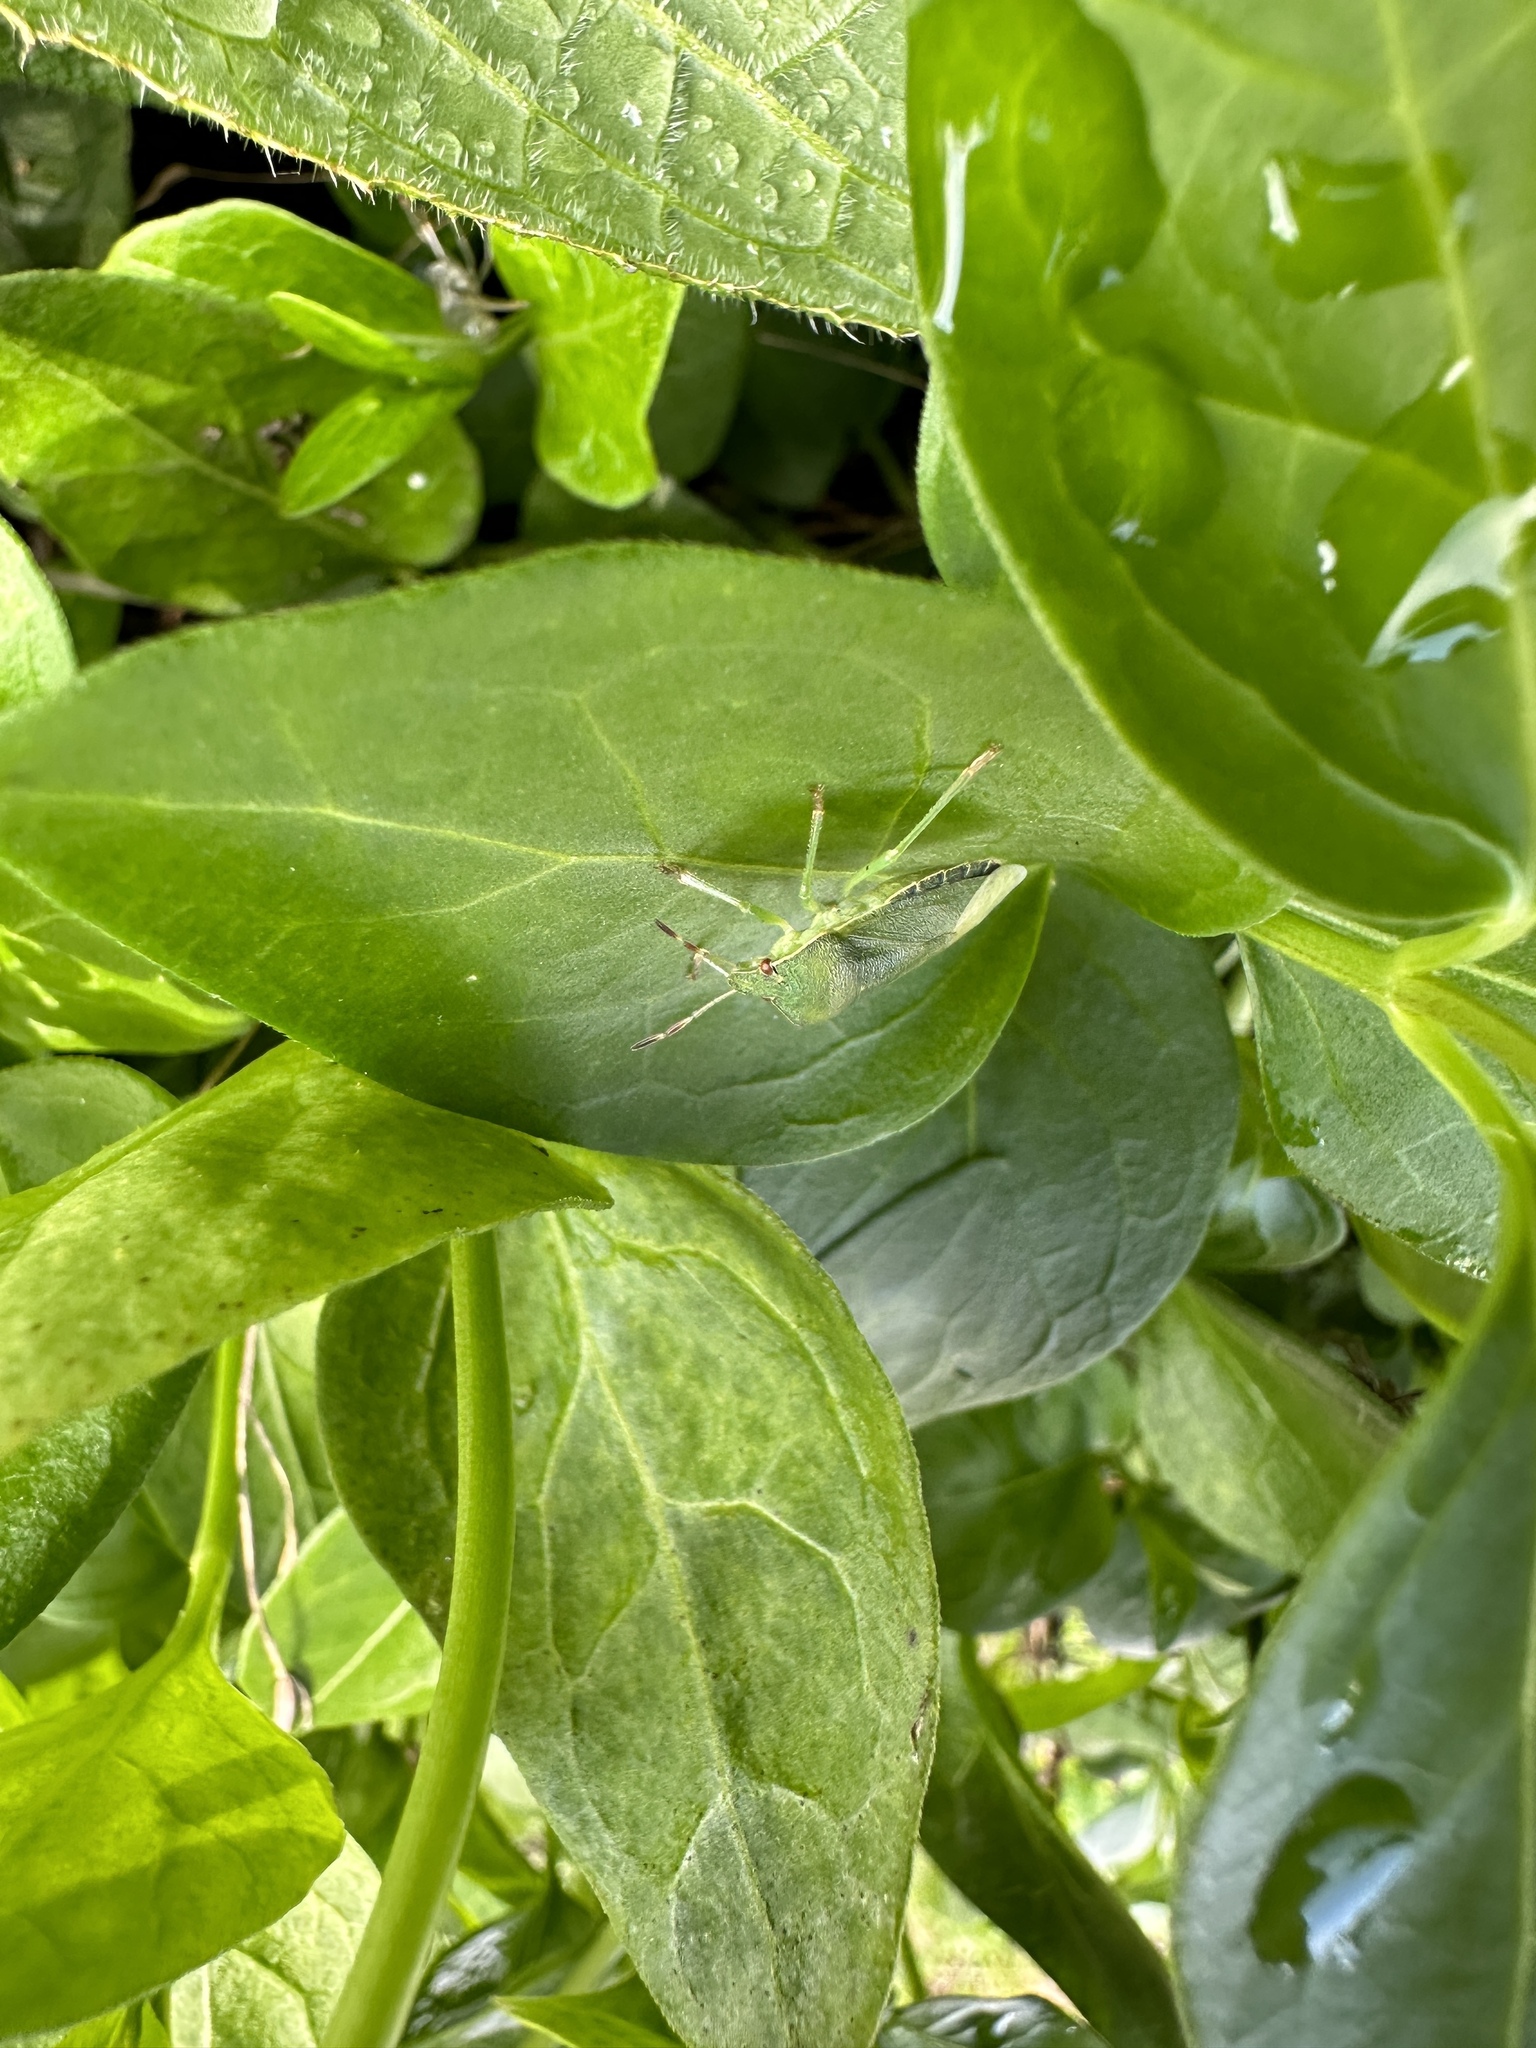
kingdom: Animalia
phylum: Arthropoda
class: Insecta
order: Hemiptera
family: Pentatomidae
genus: Palomena
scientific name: Palomena prasina
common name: Green shieldbug
